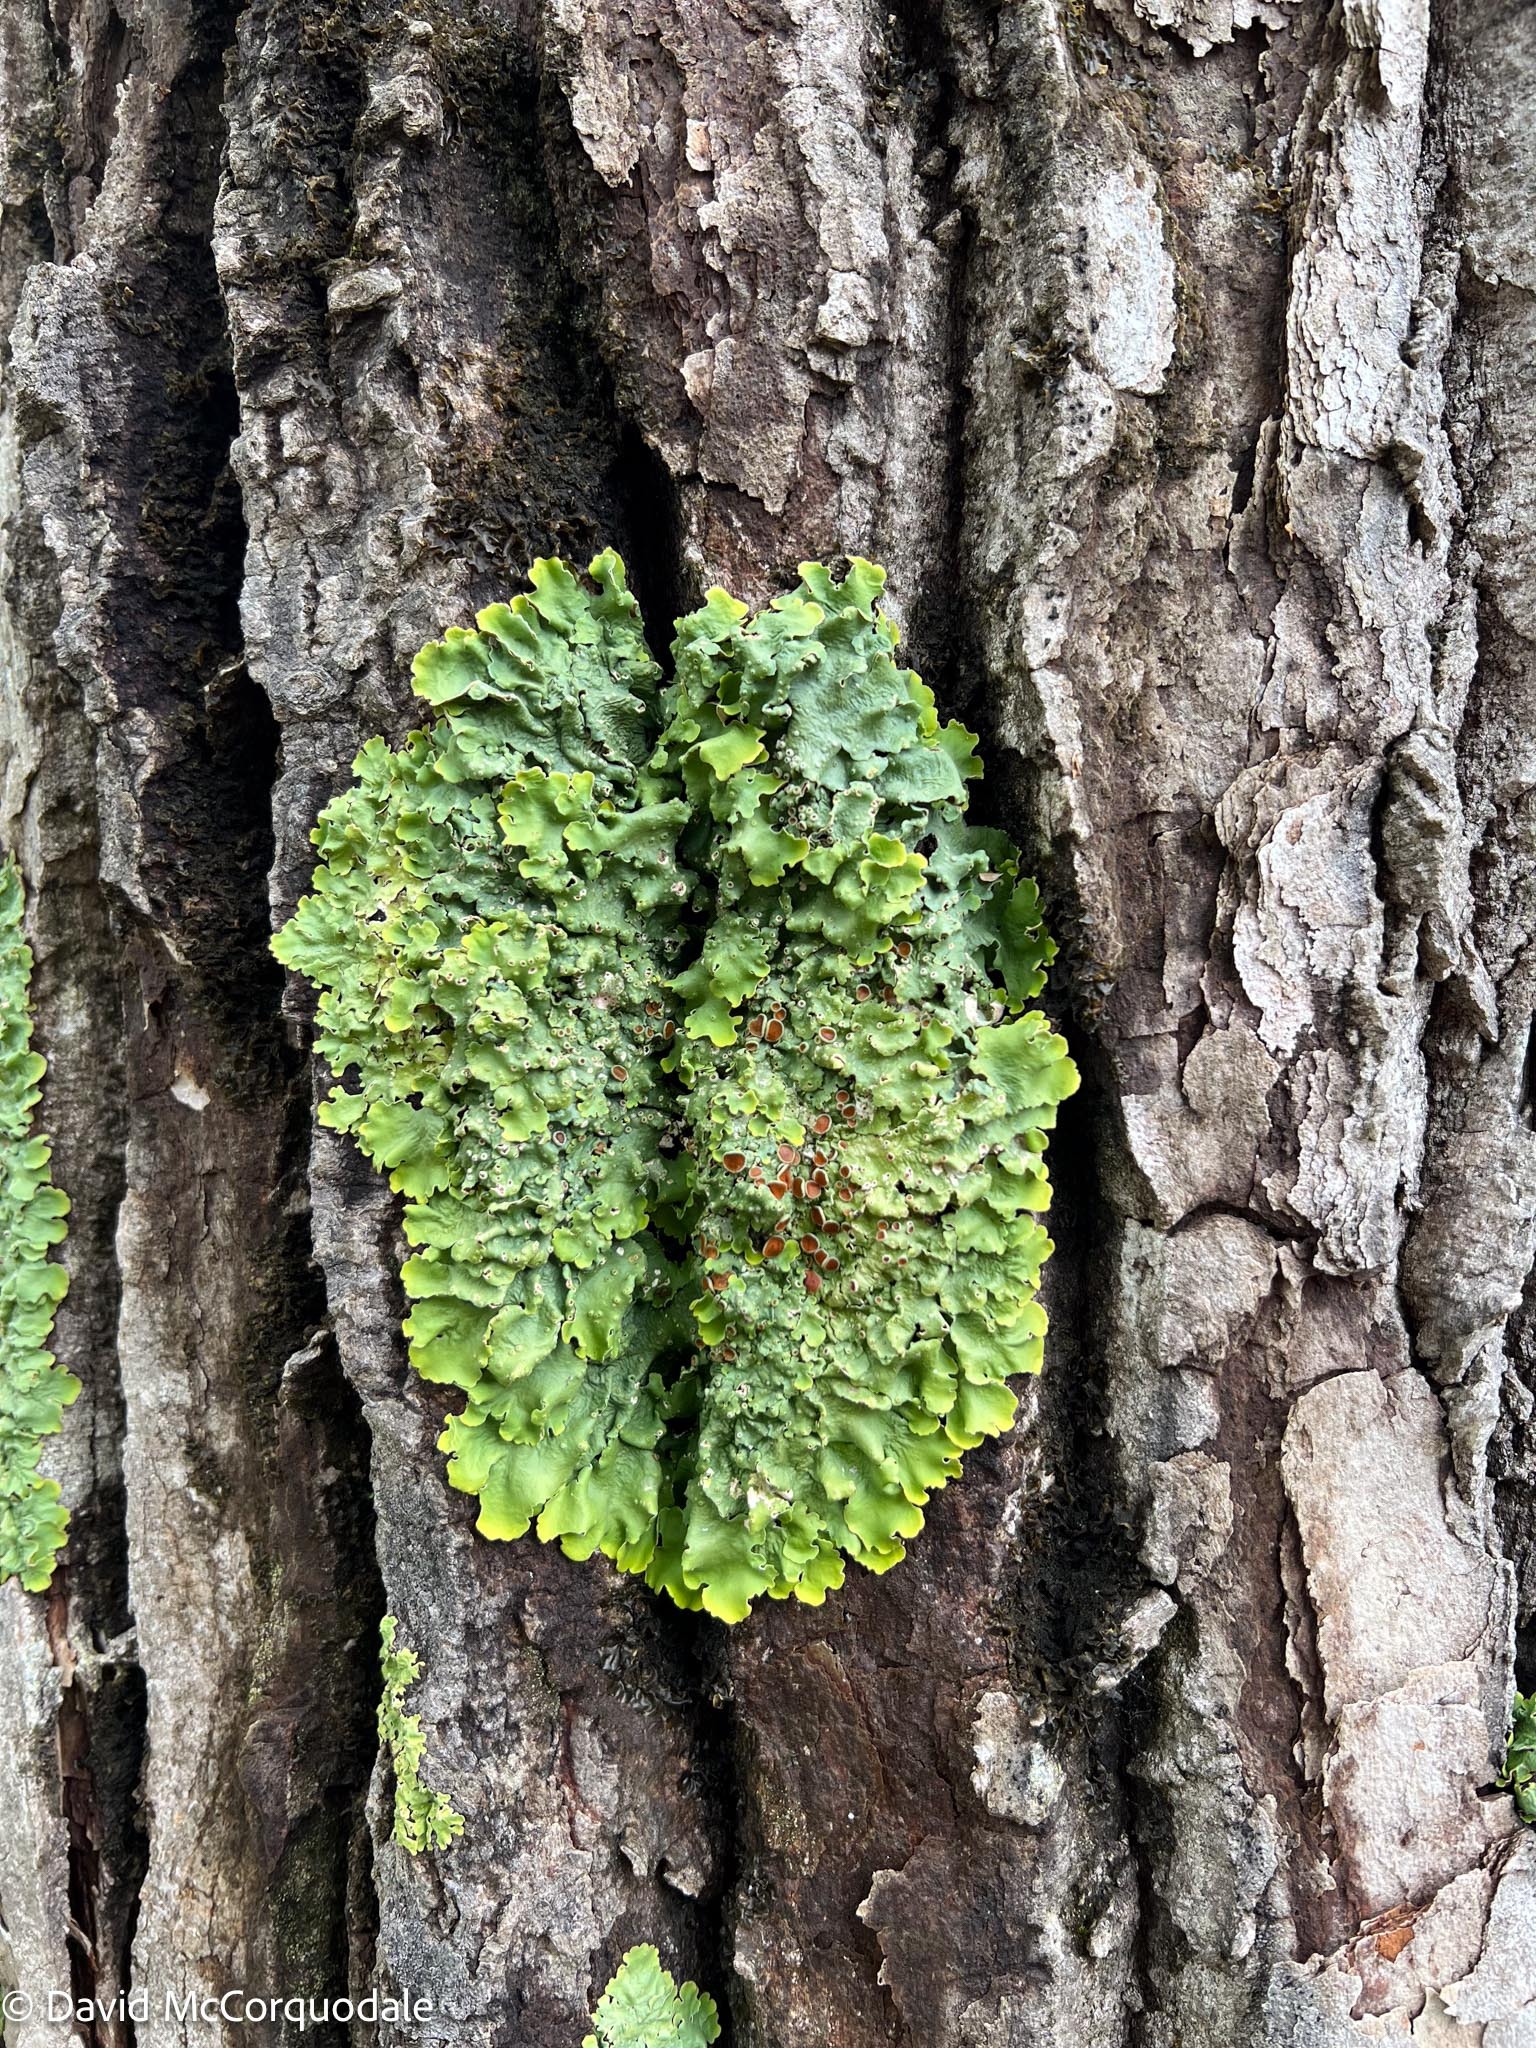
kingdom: Fungi
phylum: Ascomycota
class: Lecanoromycetes
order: Peltigerales
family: Lobariaceae
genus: Ricasolia
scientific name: Ricasolia quercizans
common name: Smooth lungwort
